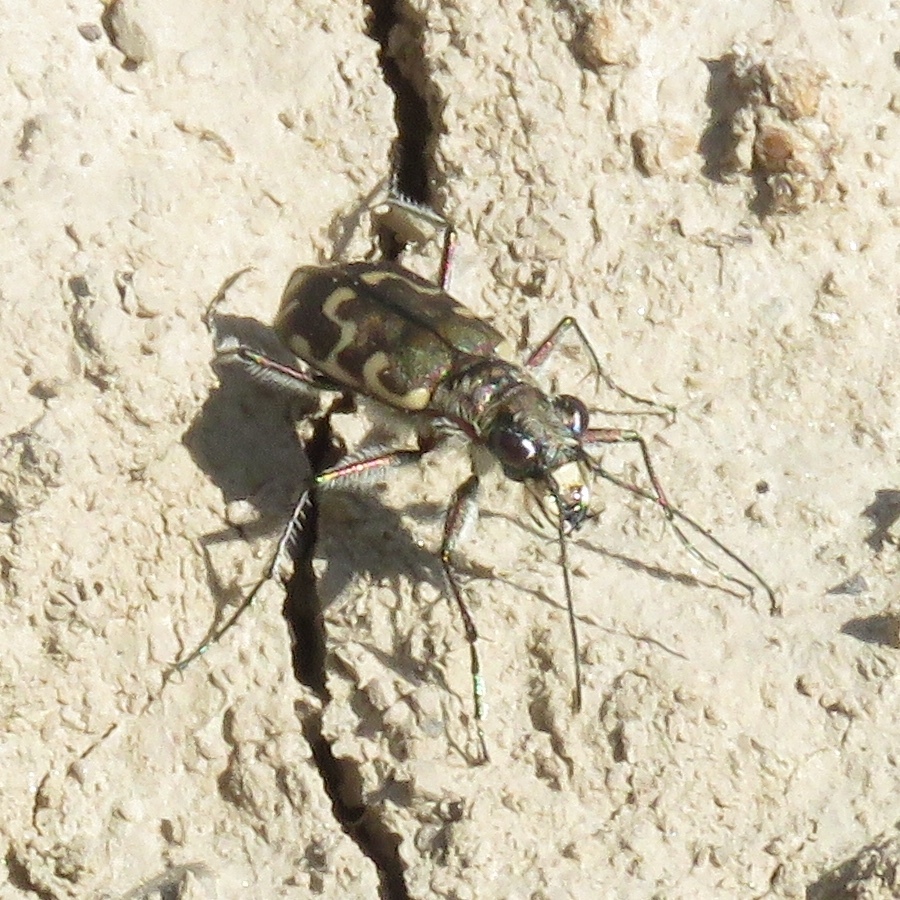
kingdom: Animalia
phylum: Arthropoda
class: Insecta
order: Coleoptera
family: Carabidae
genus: Cicindela
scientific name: Cicindela repanda
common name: Bronzed tiger beetle
